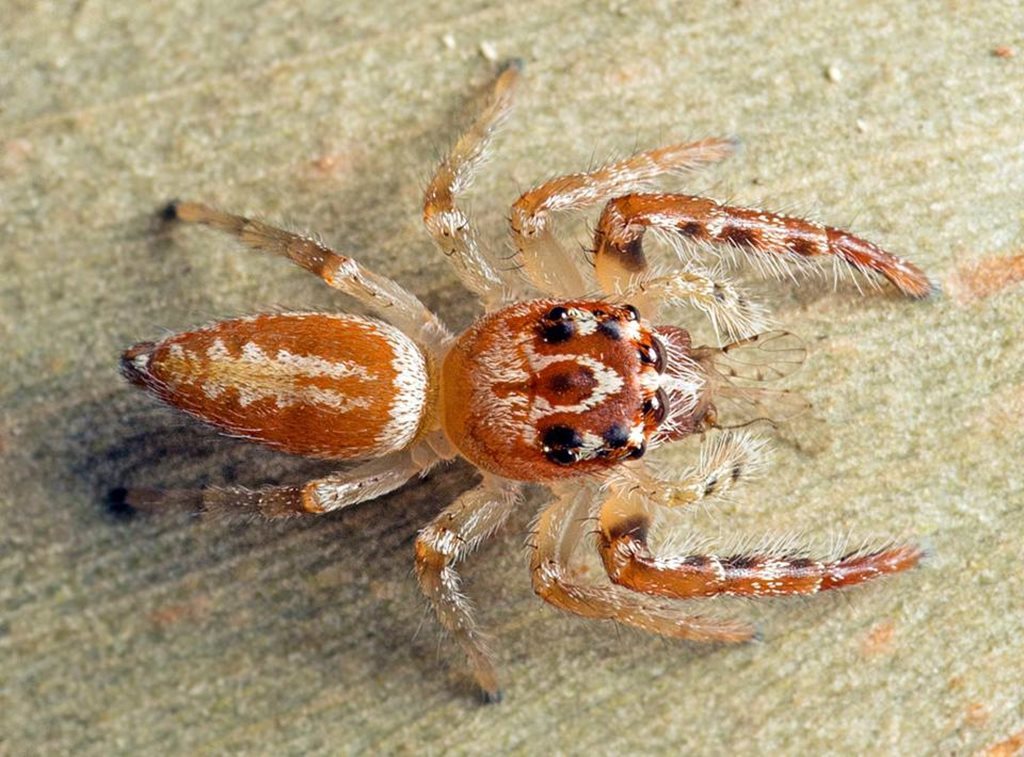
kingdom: Animalia
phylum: Arthropoda
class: Arachnida
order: Araneae
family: Salticidae
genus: Opisthoncus
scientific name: Opisthoncus alborufescens
